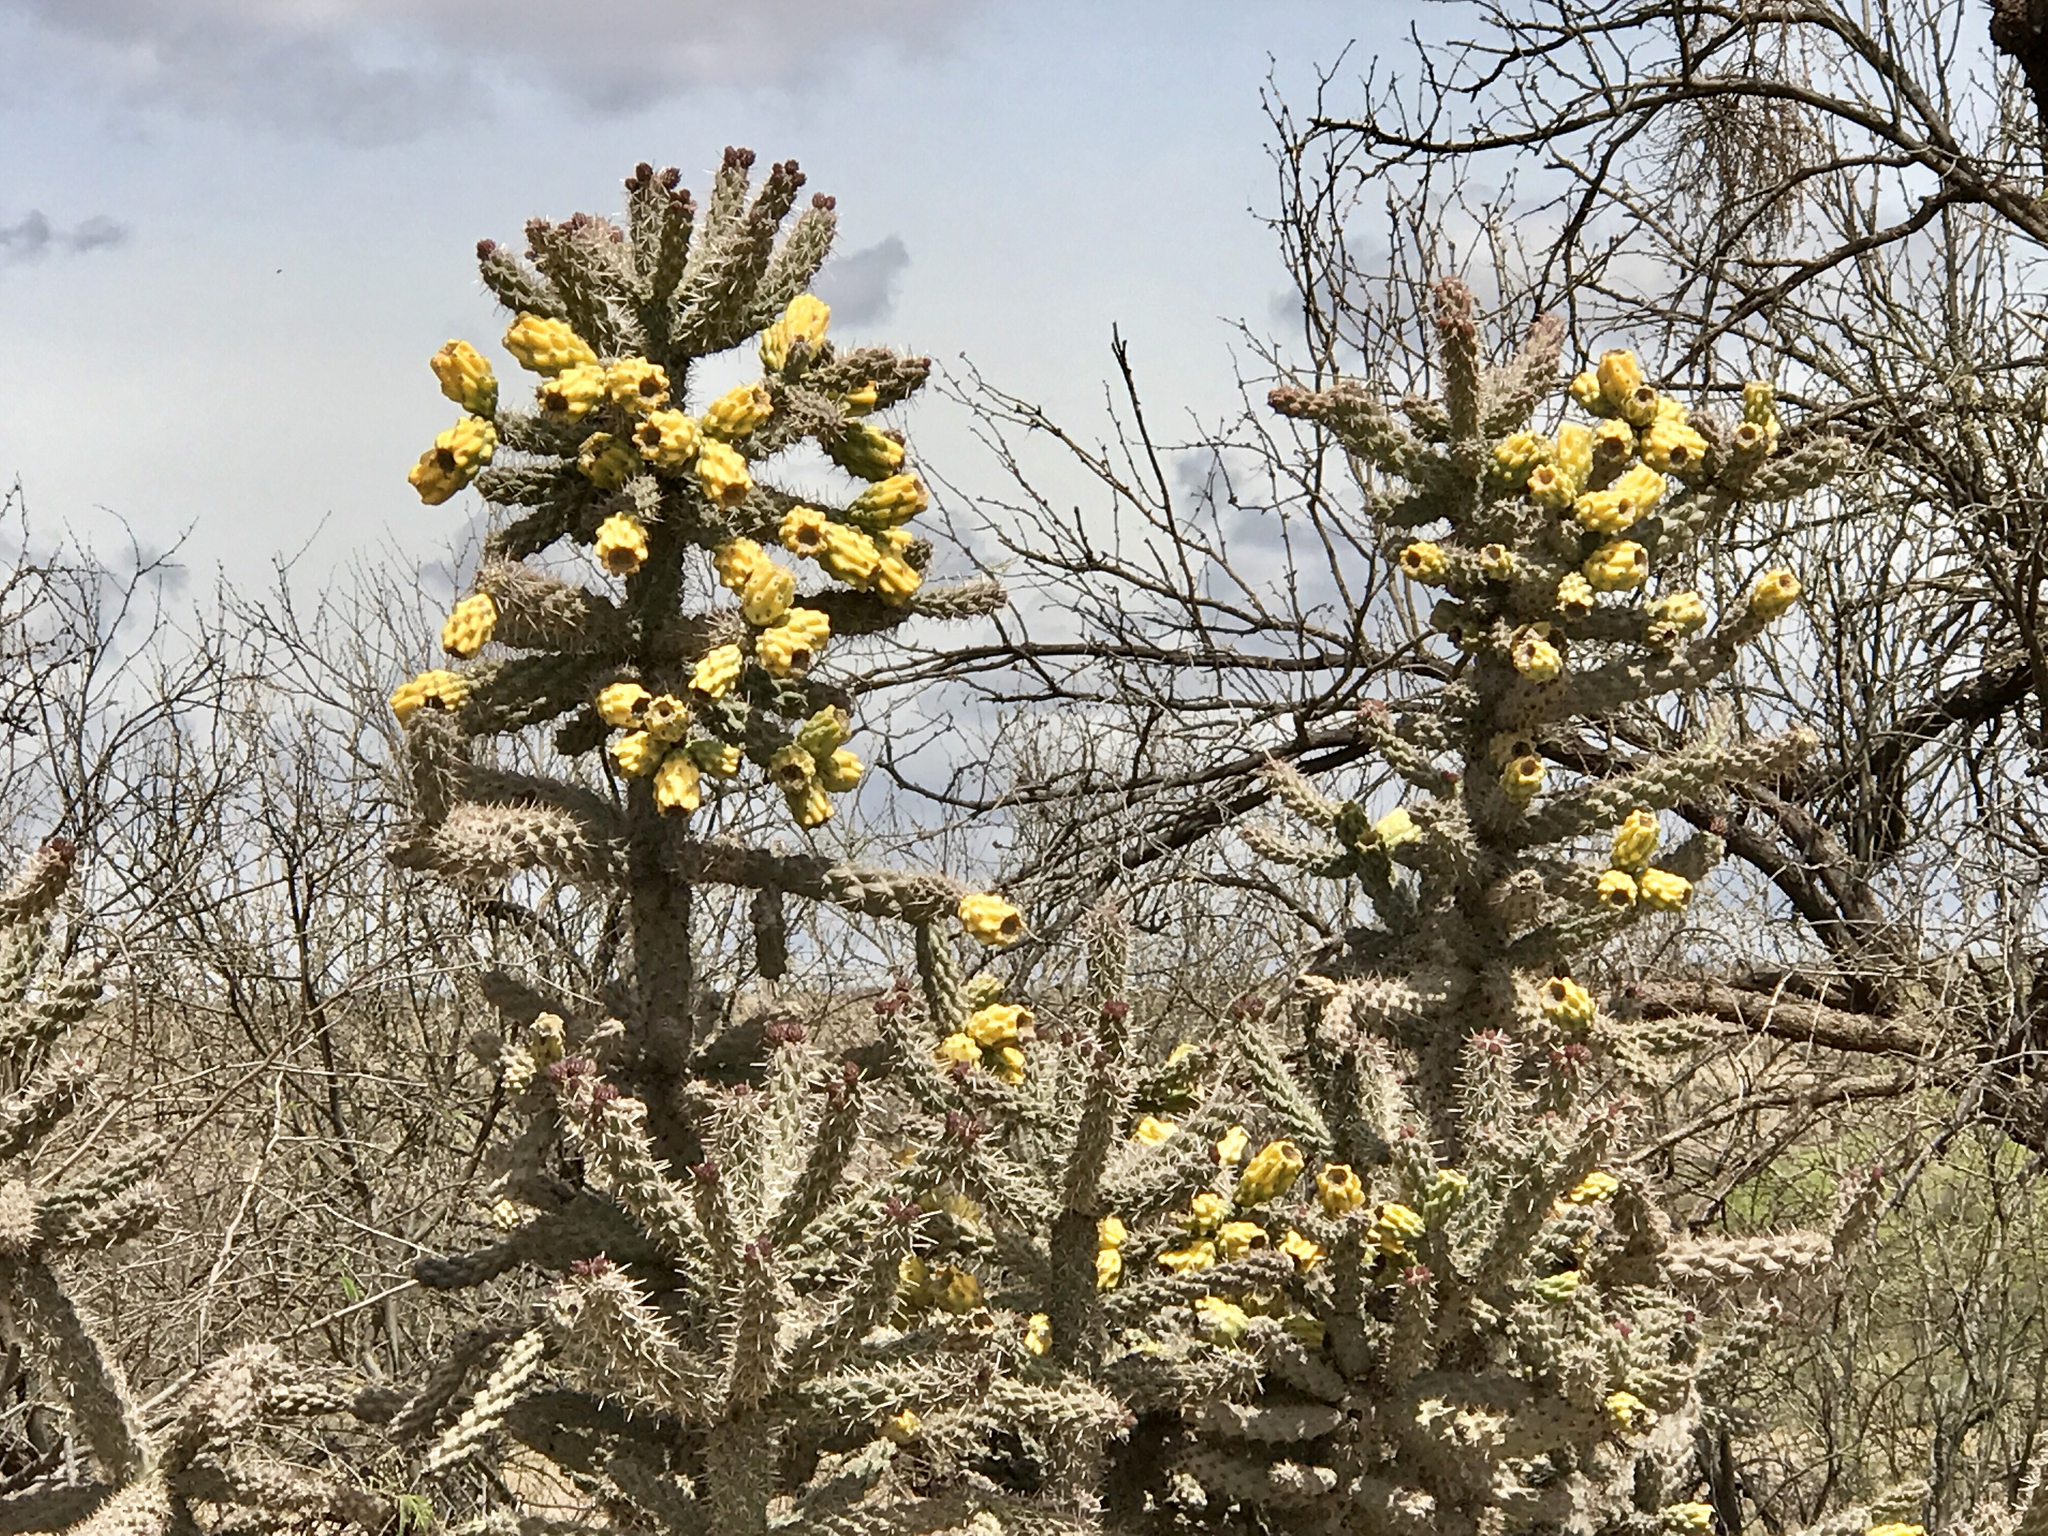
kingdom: Plantae
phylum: Tracheophyta
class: Magnoliopsida
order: Caryophyllales
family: Cactaceae
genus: Cylindropuntia
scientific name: Cylindropuntia imbricata
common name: Candelabrum cactus
